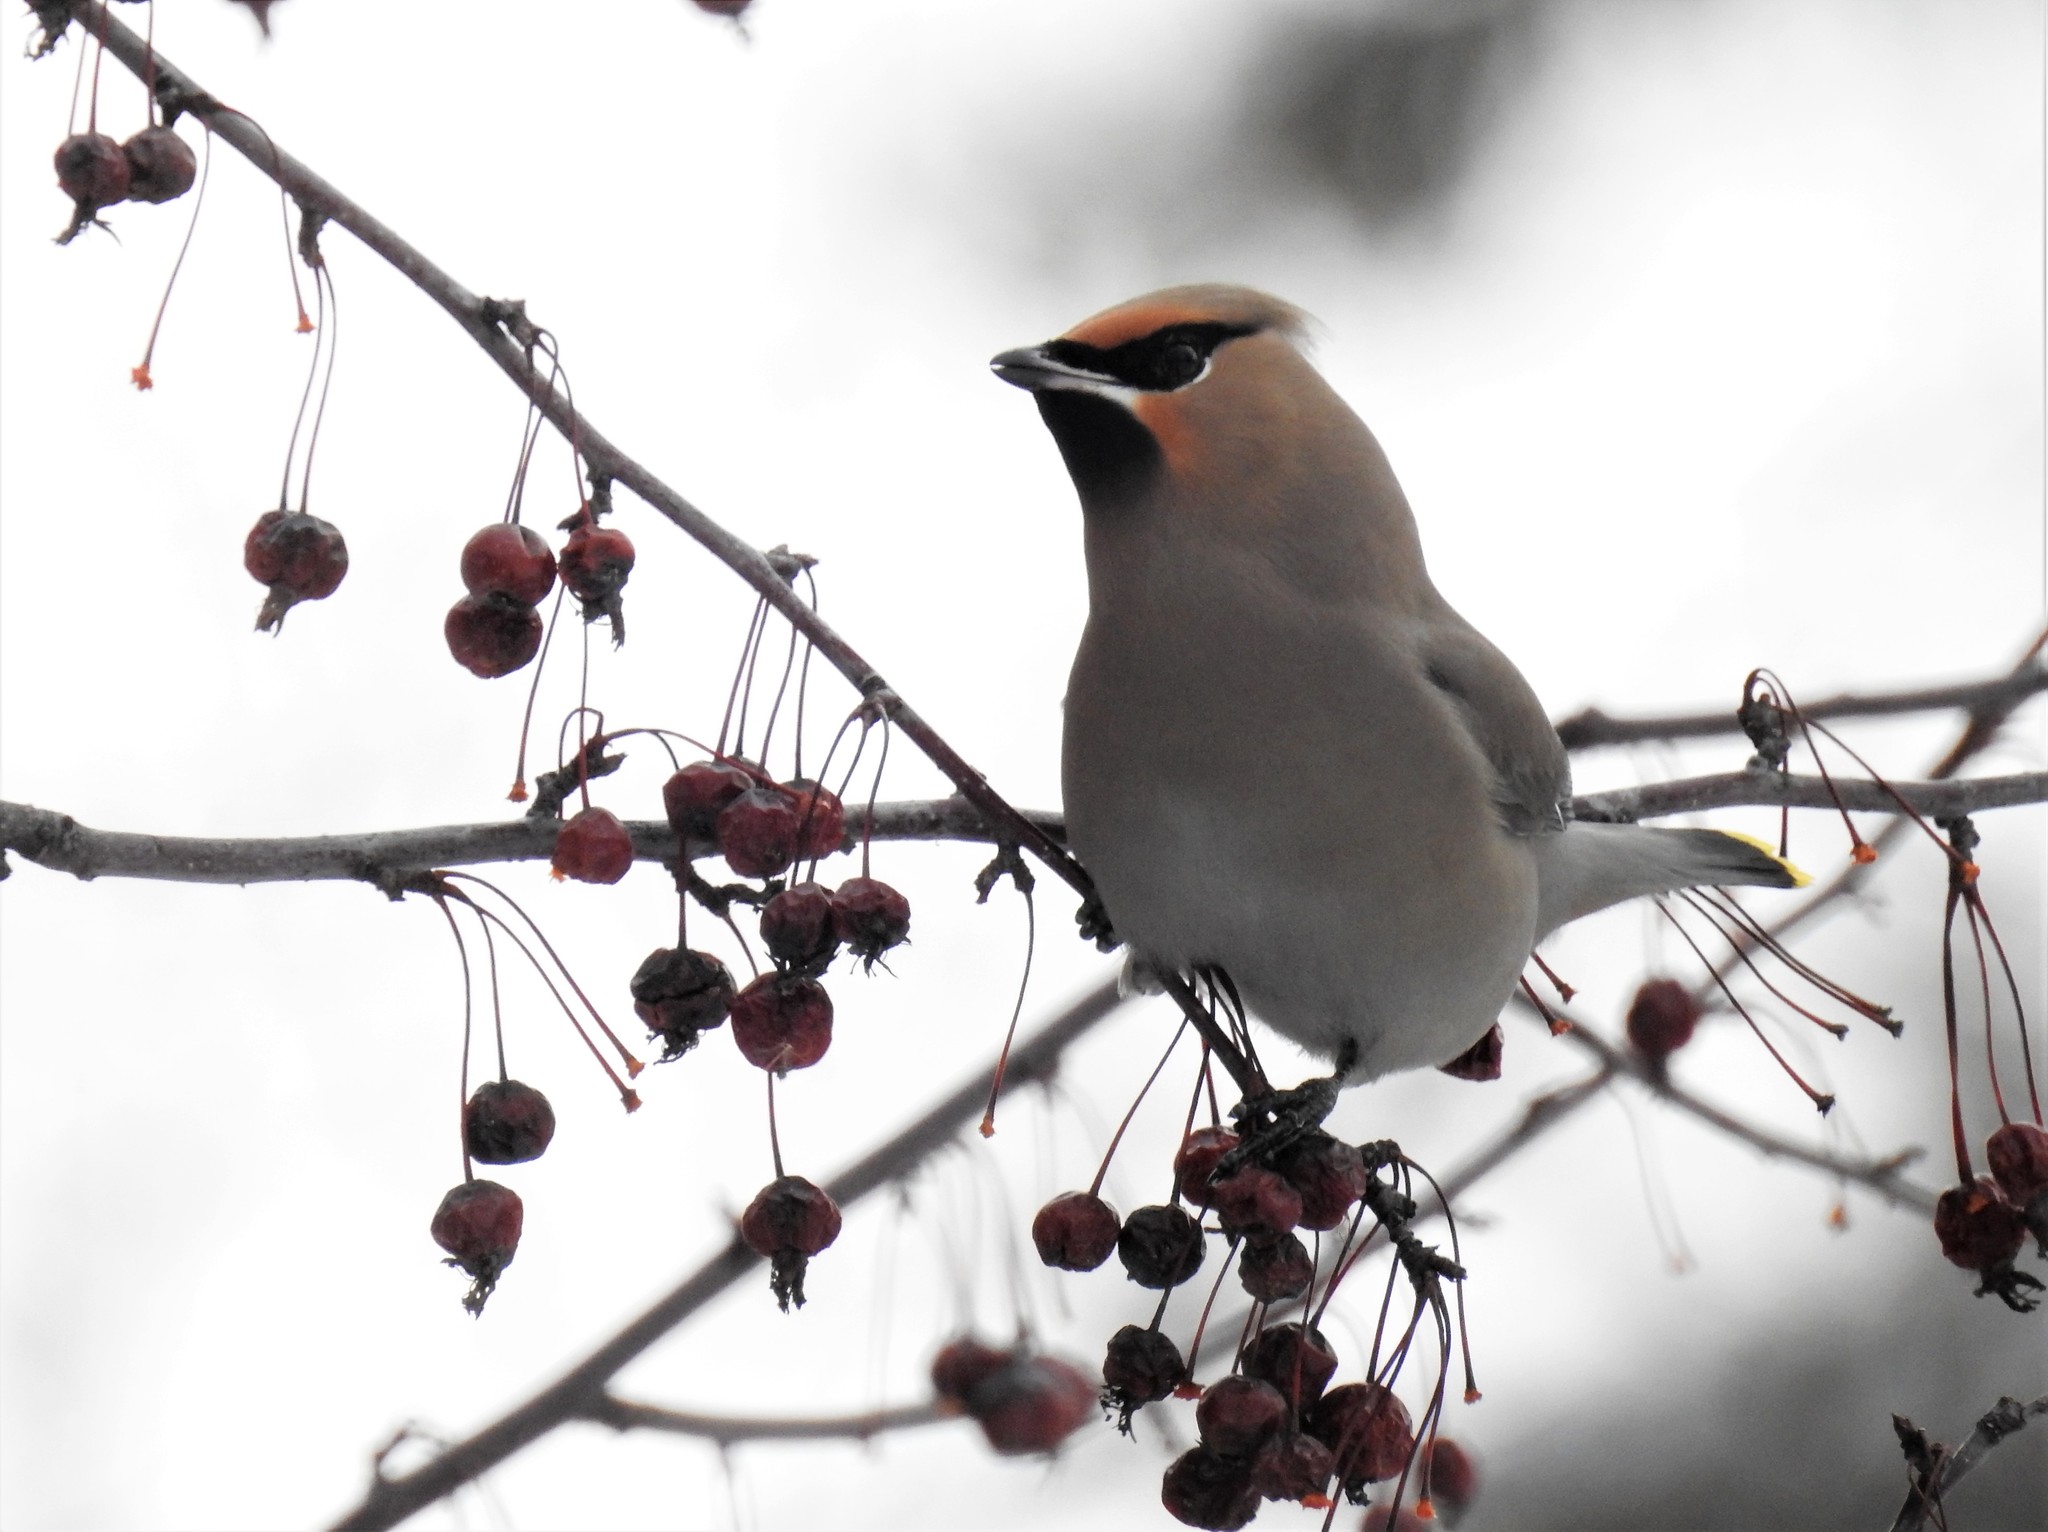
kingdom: Animalia
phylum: Chordata
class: Aves
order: Passeriformes
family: Bombycillidae
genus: Bombycilla
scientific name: Bombycilla garrulus
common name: Bohemian waxwing
